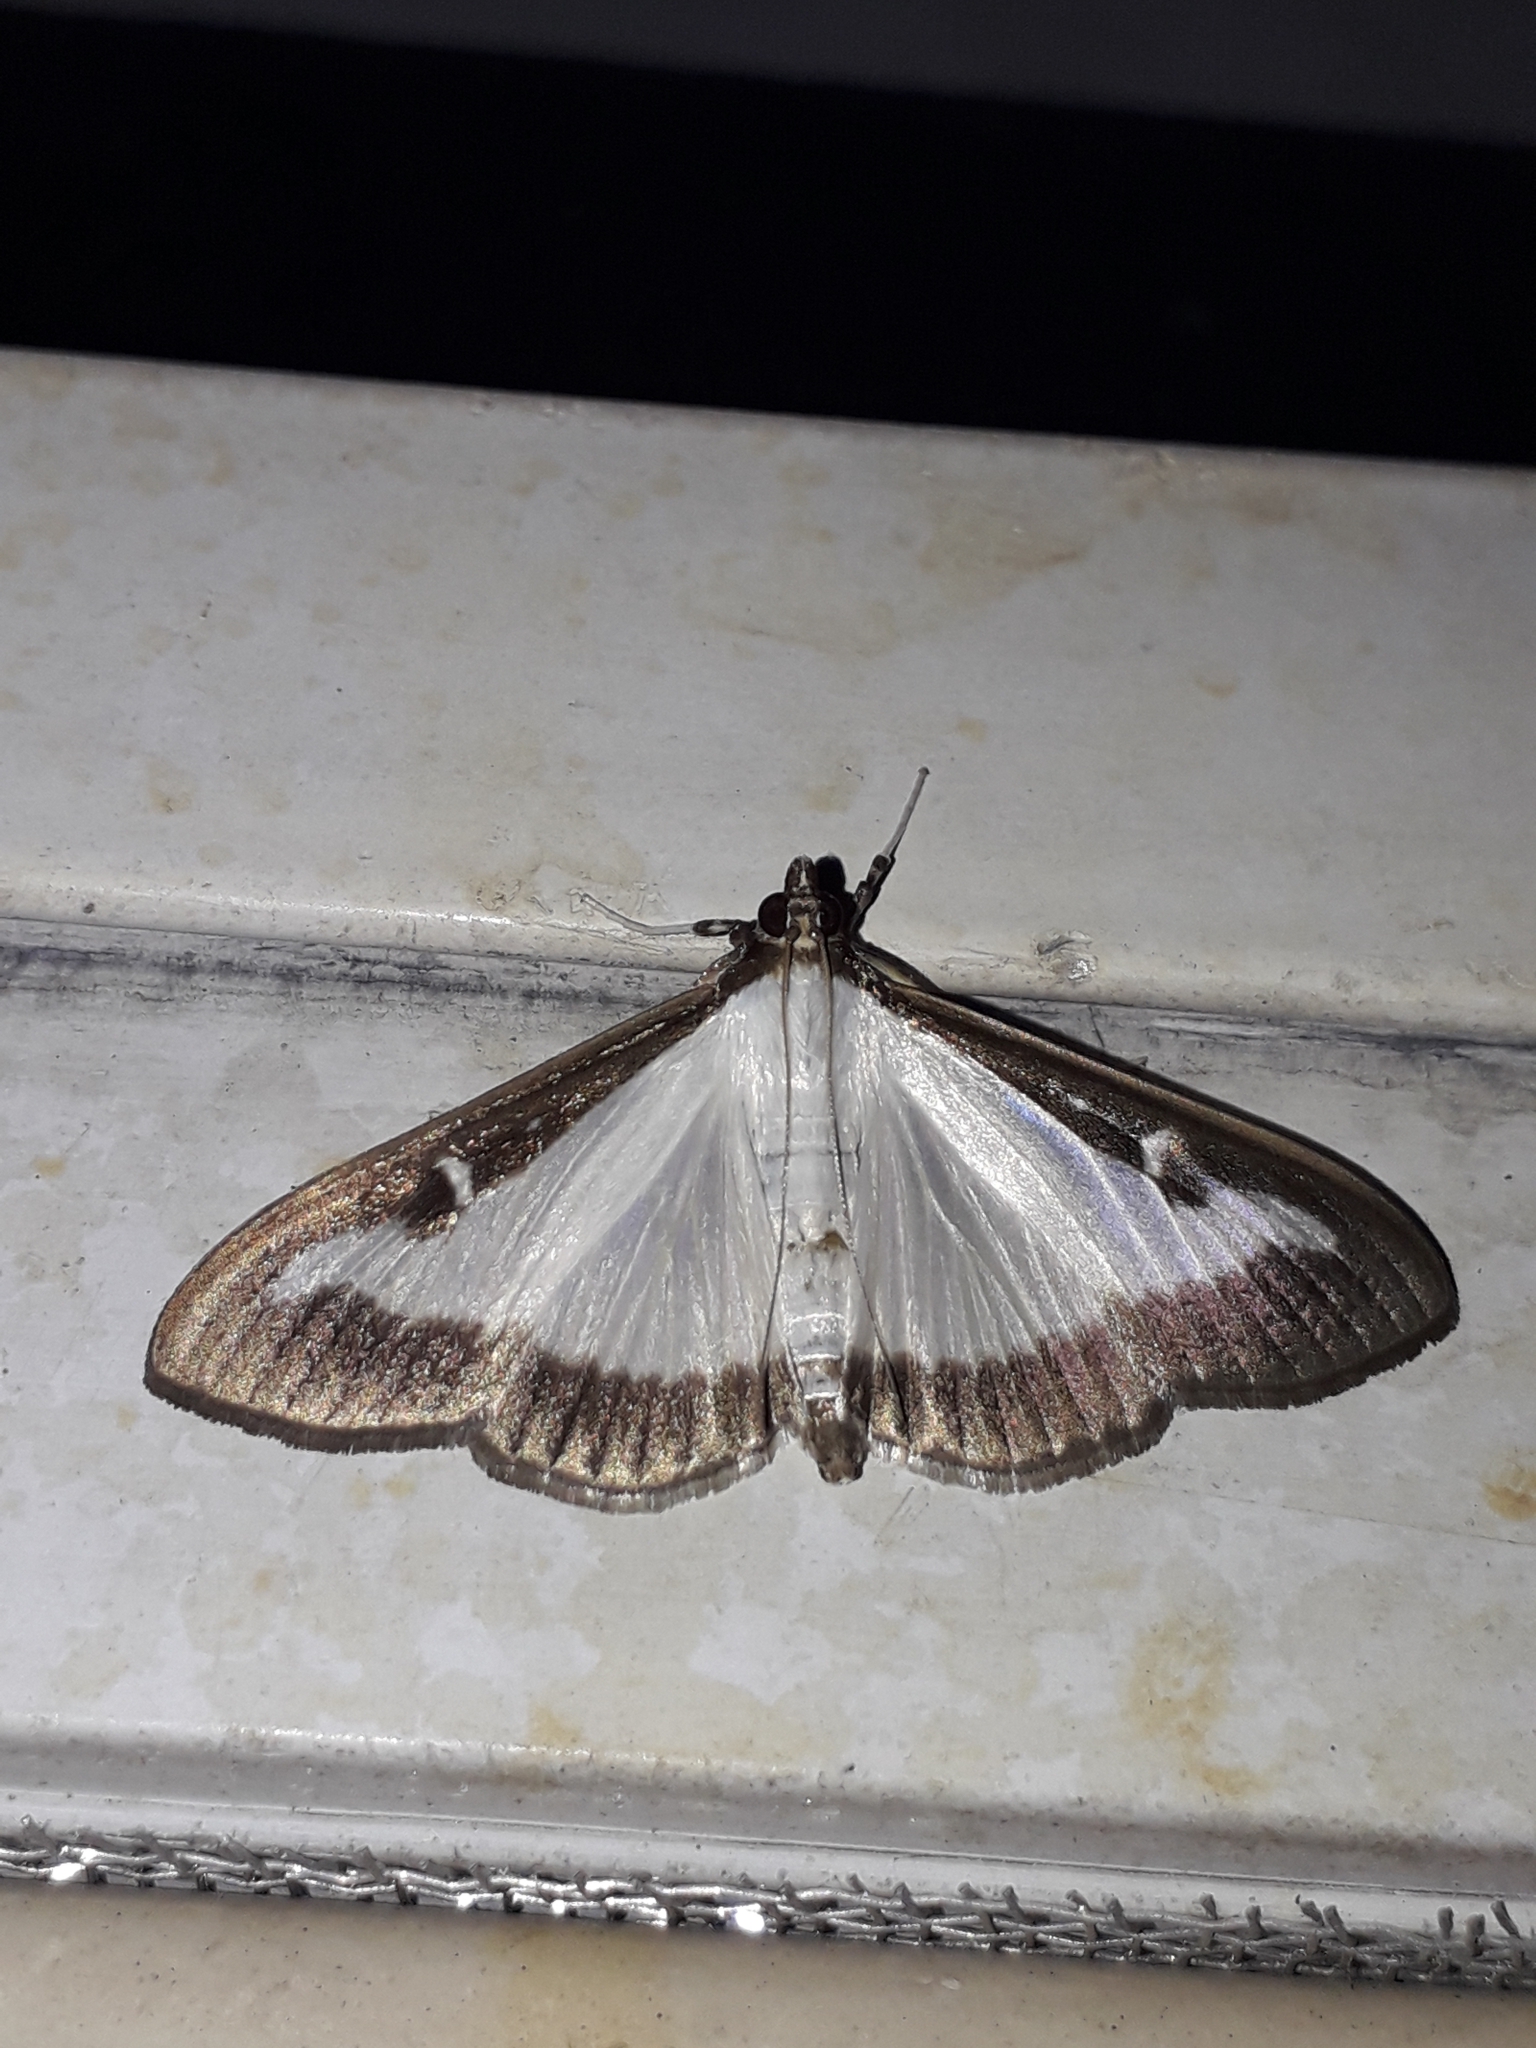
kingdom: Animalia
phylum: Arthropoda
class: Insecta
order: Lepidoptera
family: Crambidae
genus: Cydalima
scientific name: Cydalima perspectalis
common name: Box tree moth
